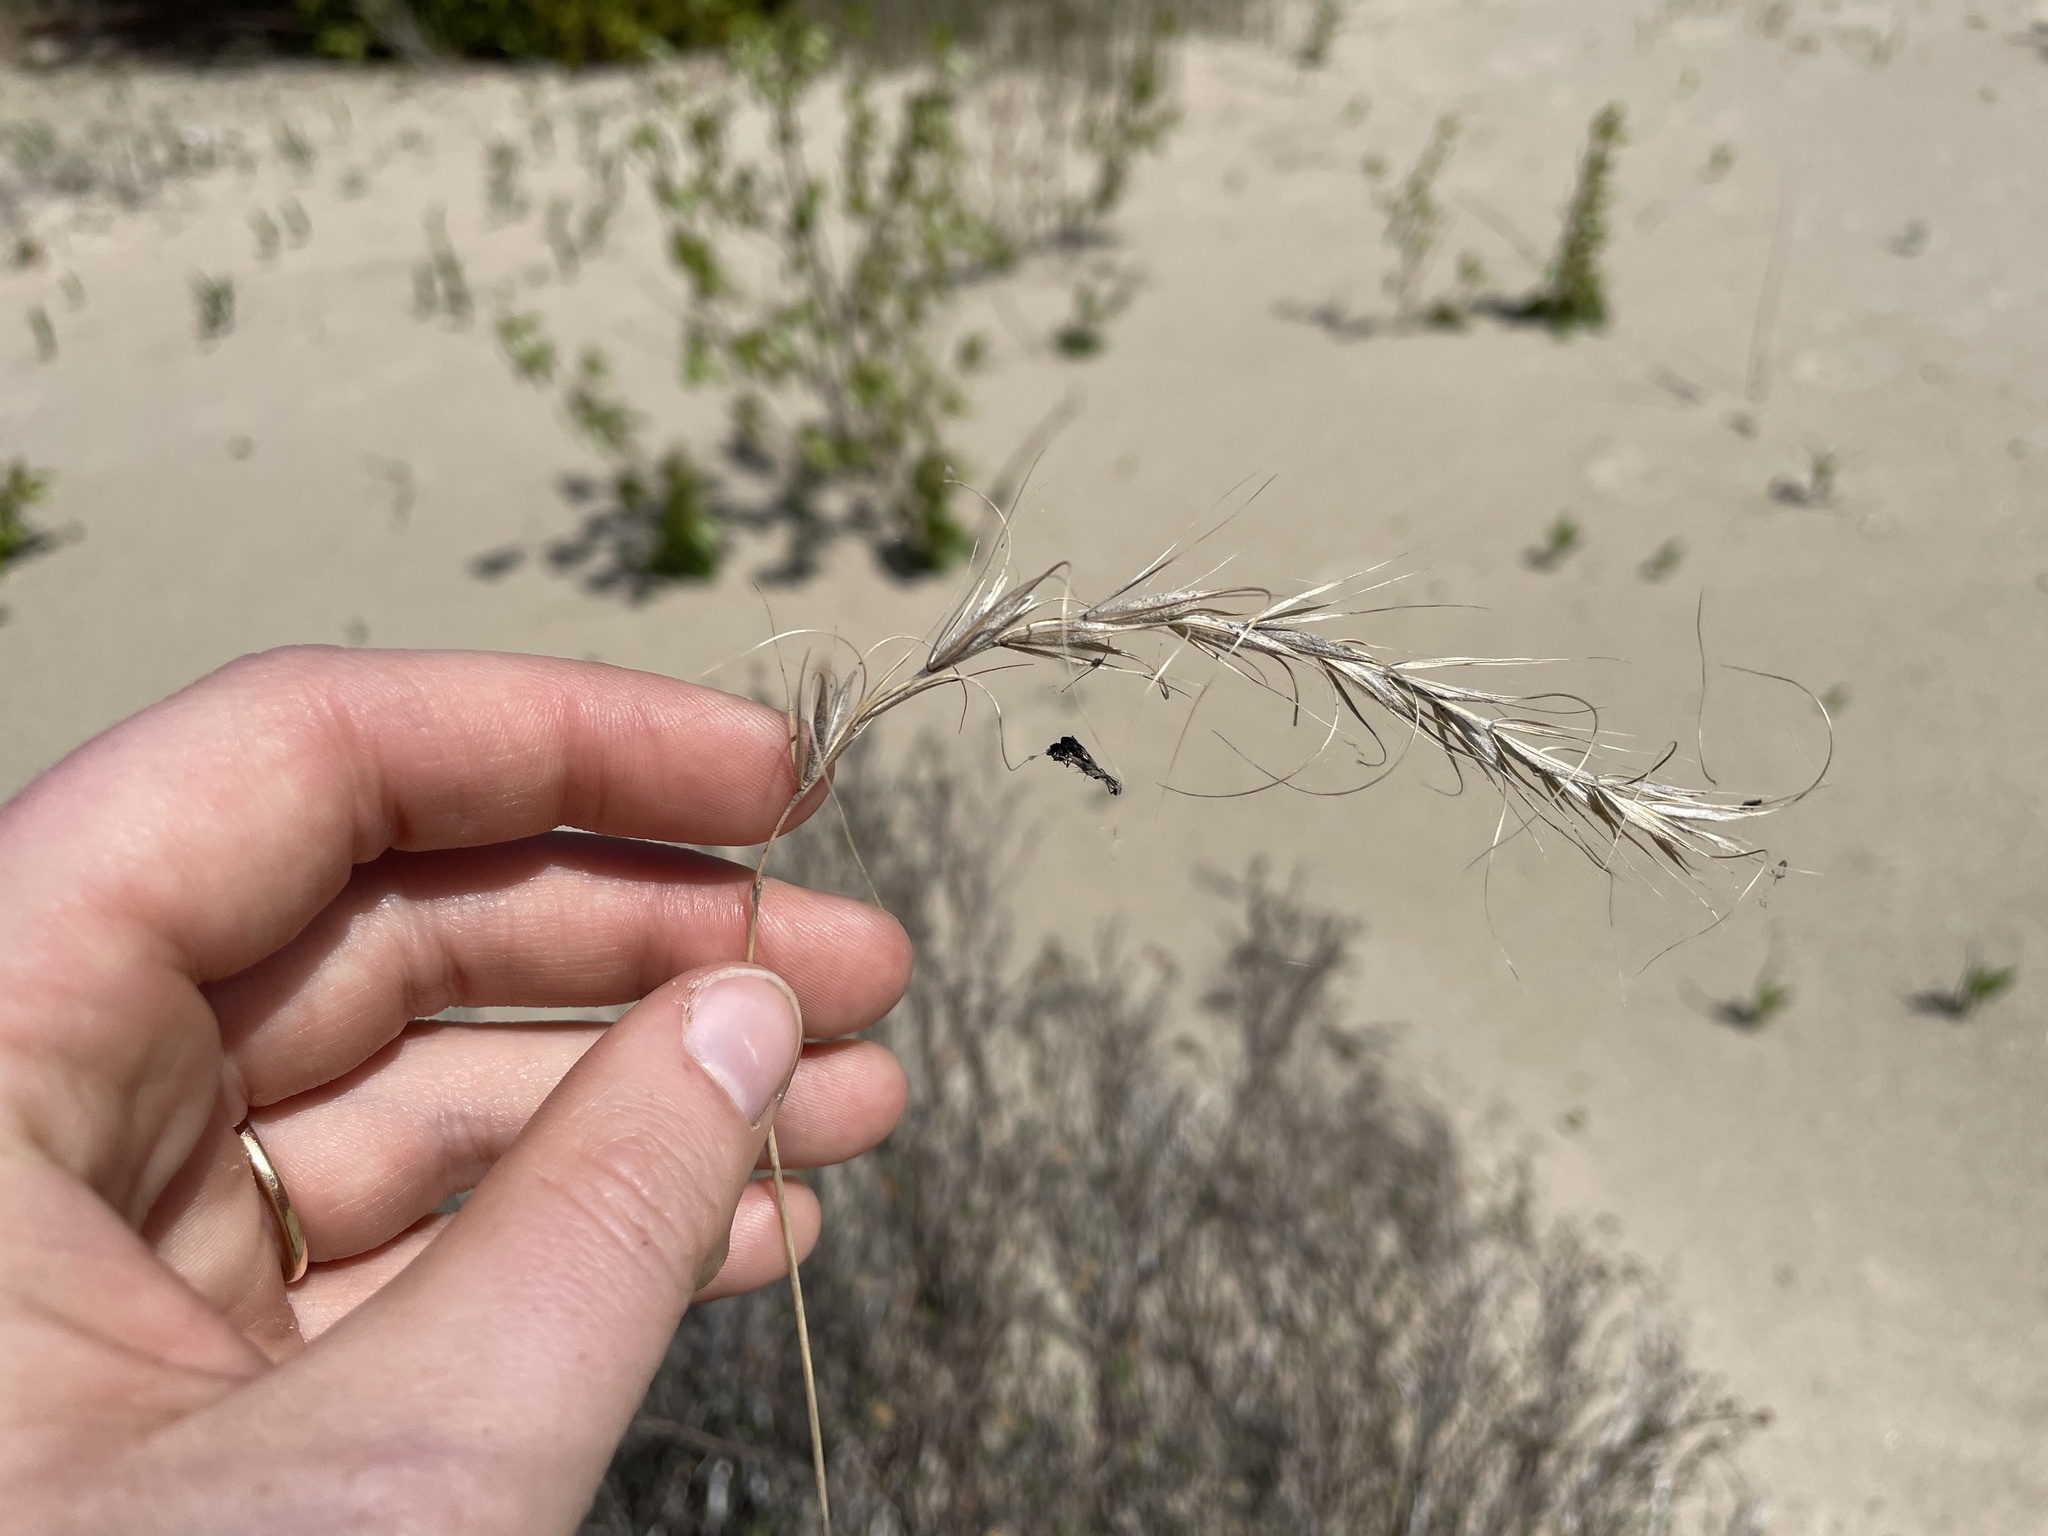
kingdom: Plantae
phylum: Tracheophyta
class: Liliopsida
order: Poales
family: Poaceae
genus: Elymus
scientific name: Elymus canadensis
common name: Canada wild rye
